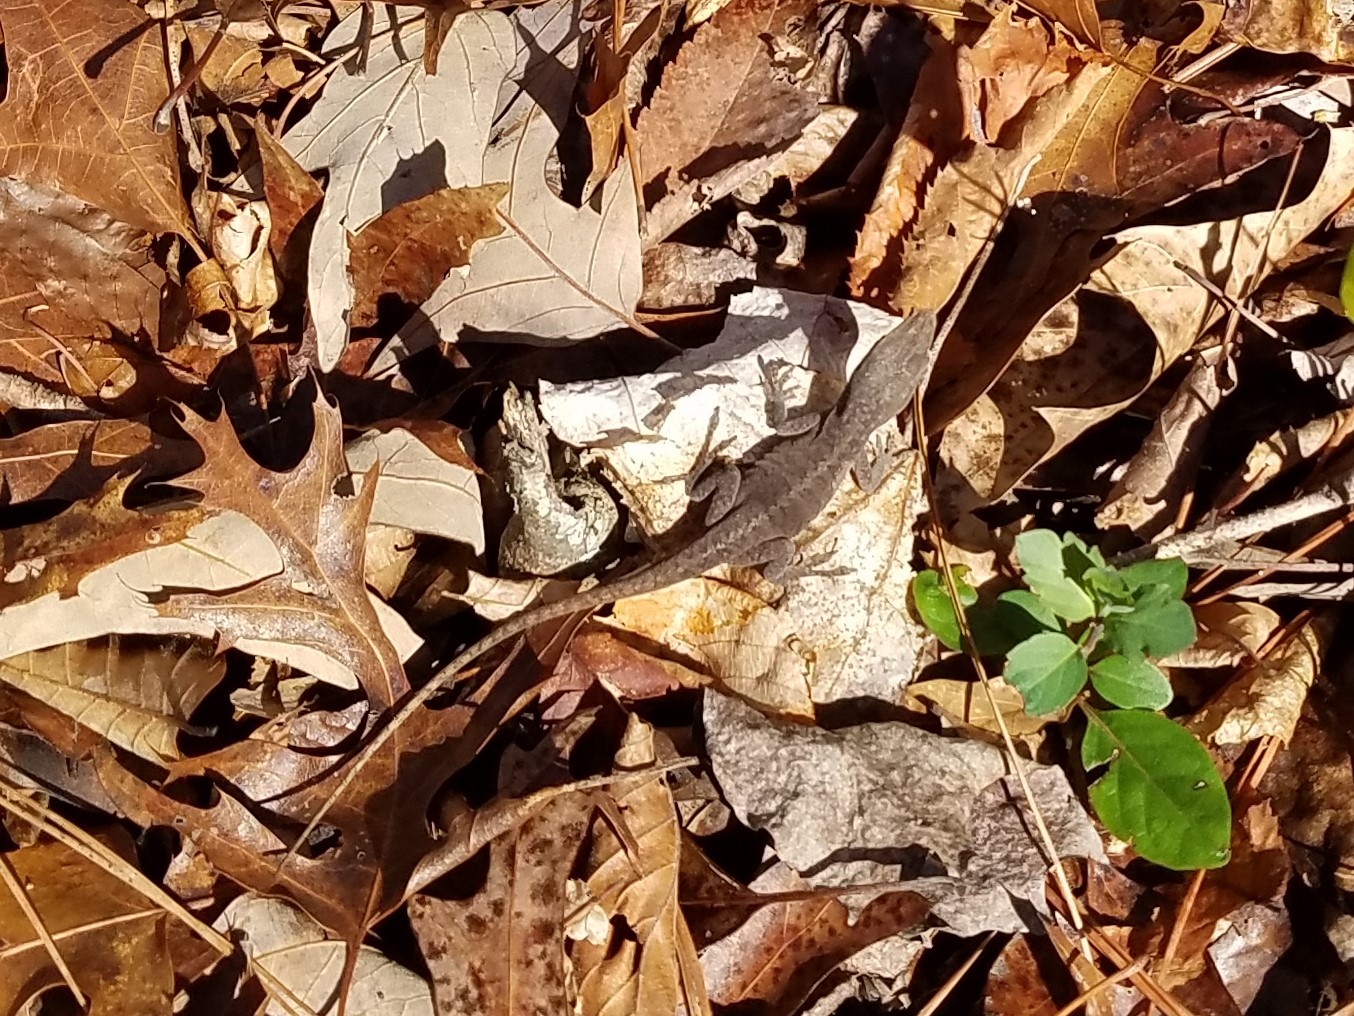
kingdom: Animalia
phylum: Chordata
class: Squamata
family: Dactyloidae
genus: Anolis
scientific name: Anolis carolinensis
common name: Green anole
